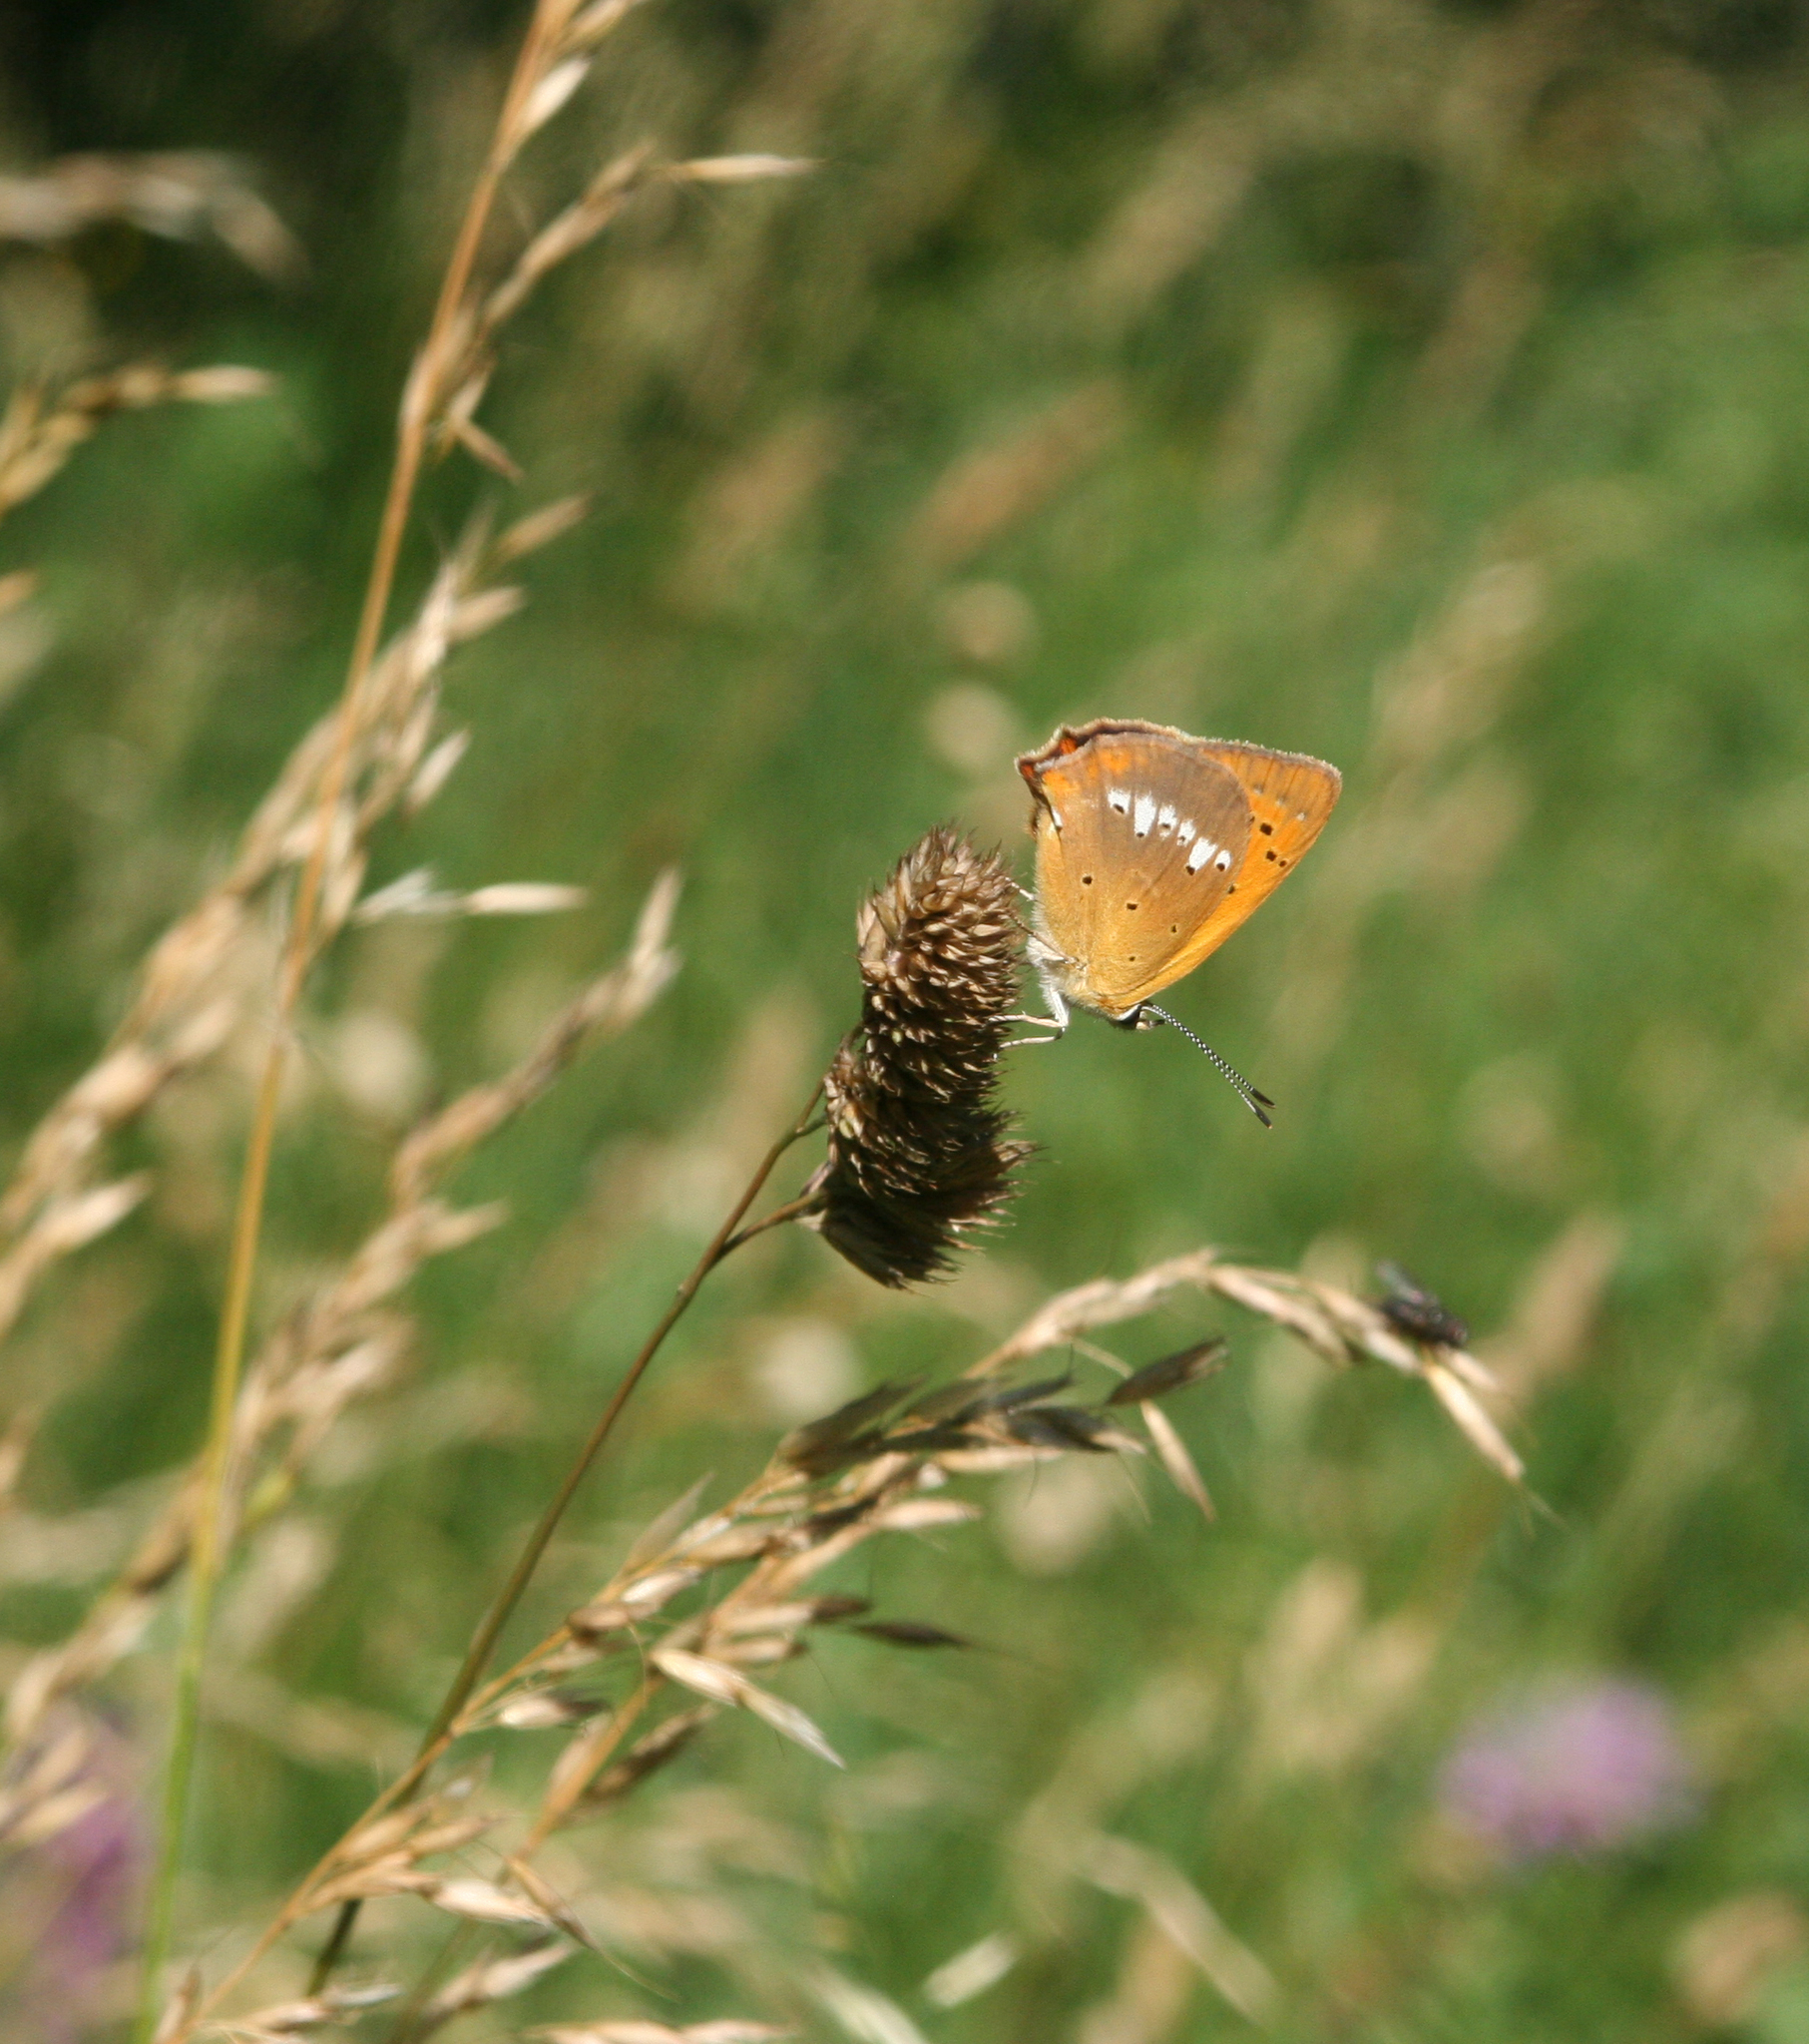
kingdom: Animalia
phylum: Arthropoda
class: Insecta
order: Lepidoptera
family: Lycaenidae
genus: Lycaena
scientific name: Lycaena virgaureae
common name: Scarce copper
